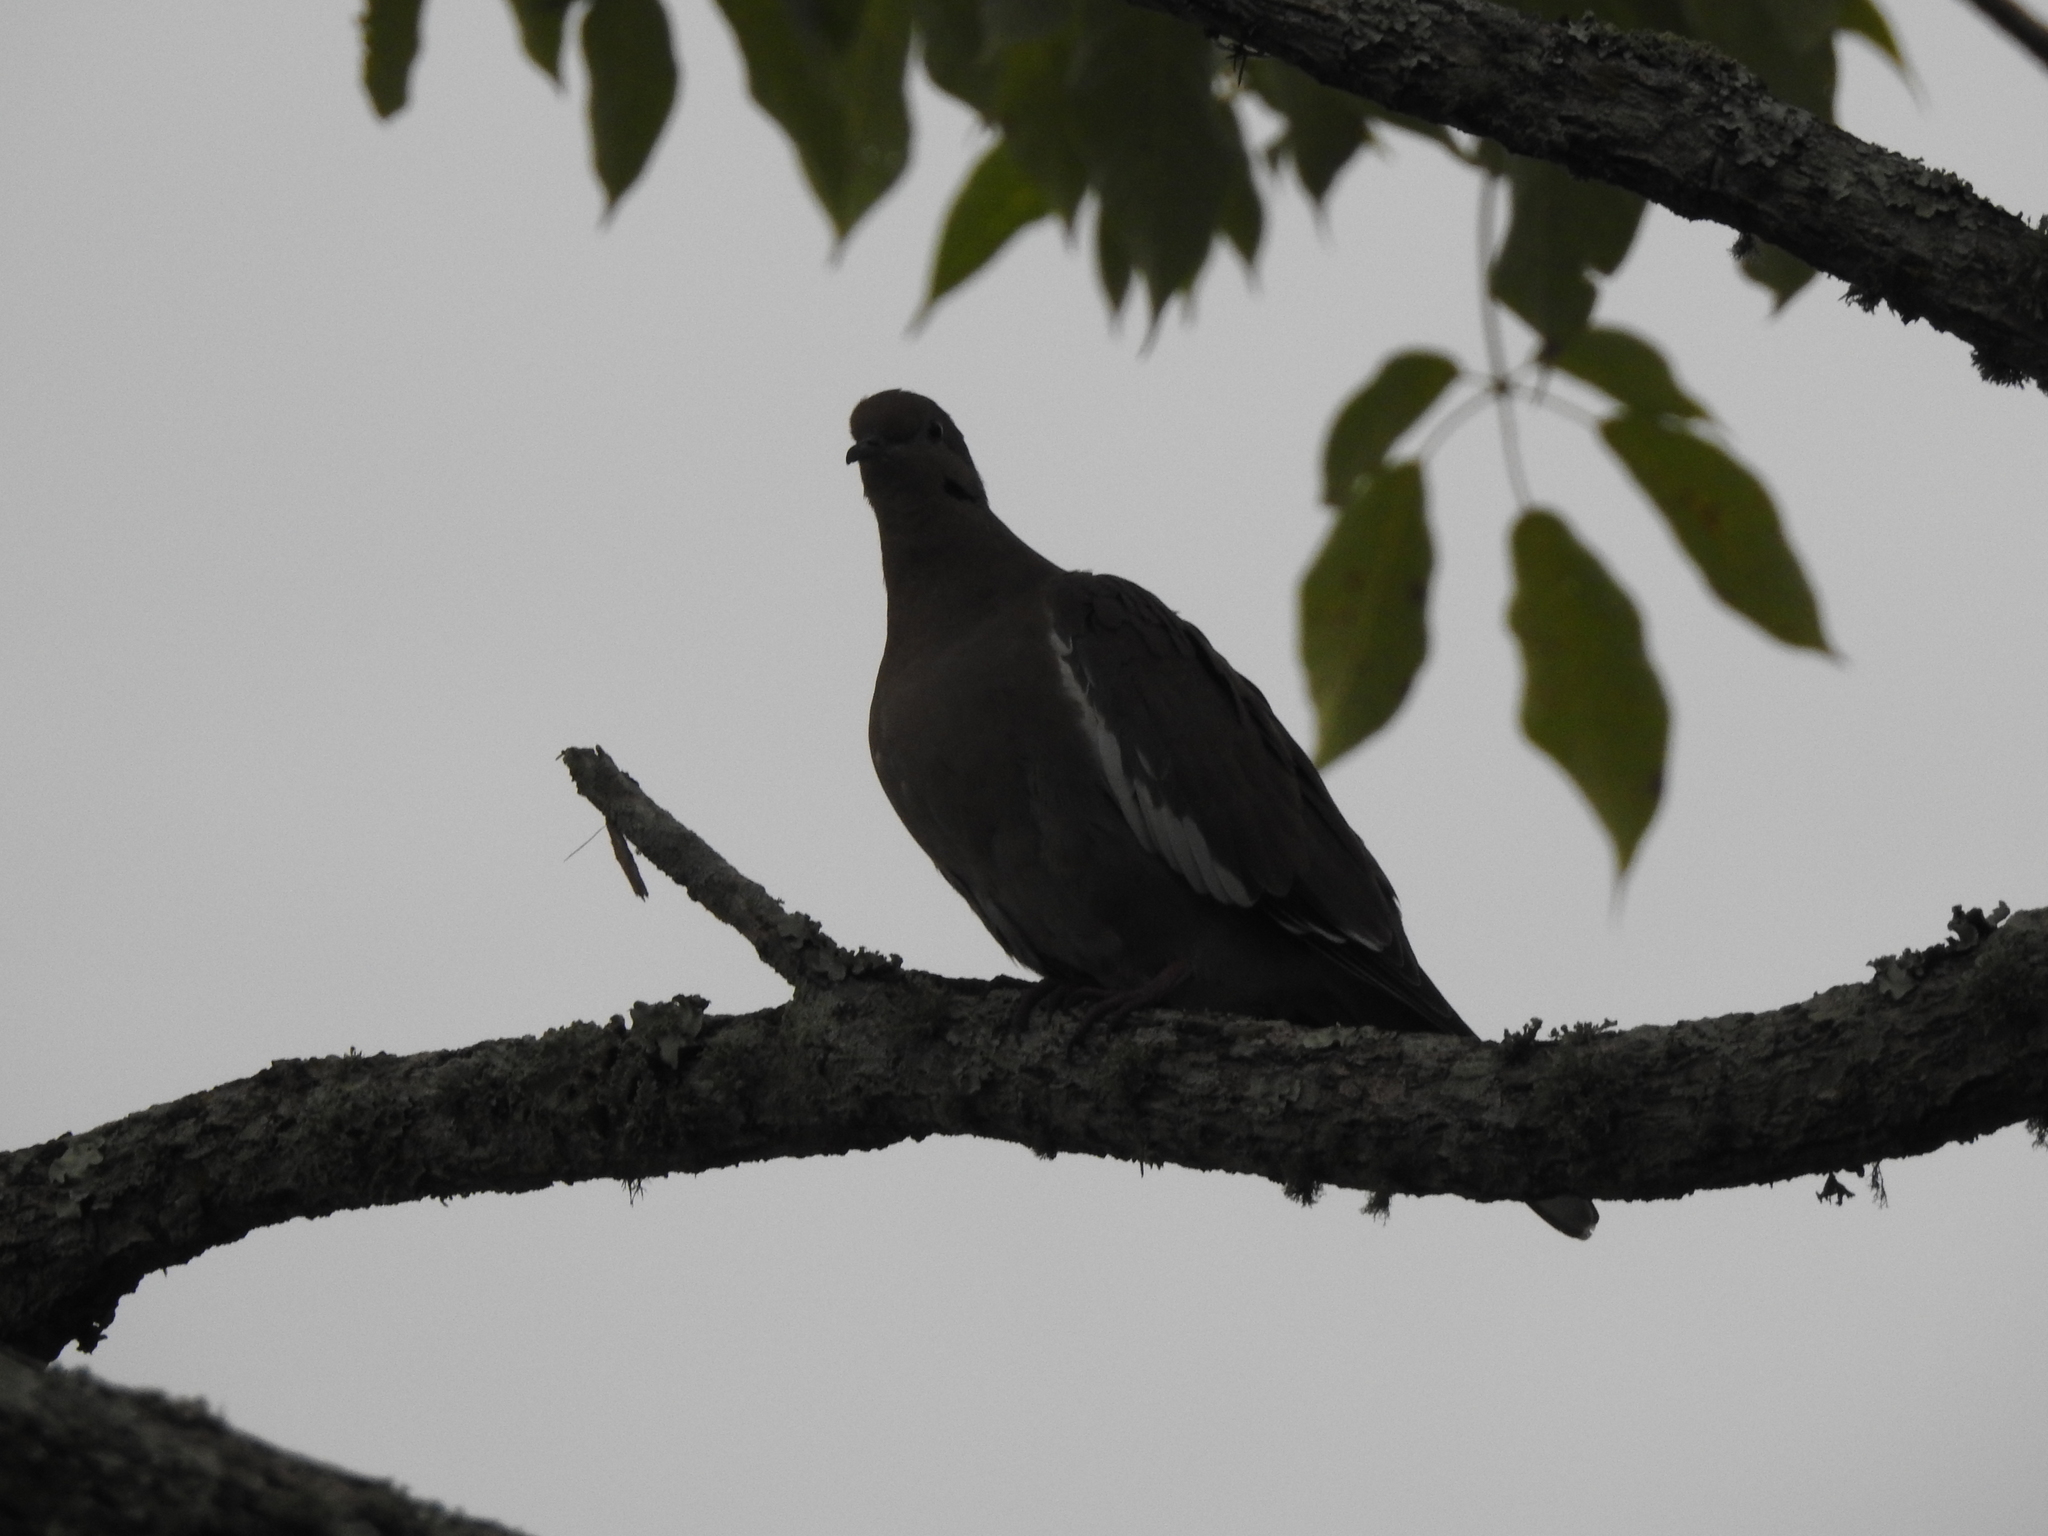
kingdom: Animalia
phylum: Chordata
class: Aves
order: Columbiformes
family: Columbidae
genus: Zenaida
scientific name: Zenaida asiatica
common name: White-winged dove
